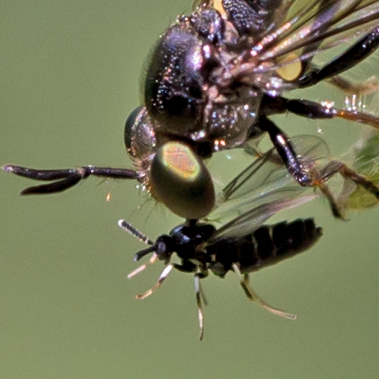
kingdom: Animalia
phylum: Arthropoda
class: Insecta
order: Diptera
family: Scatopsidae
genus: Colobostema
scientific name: Colobostema varicorne
